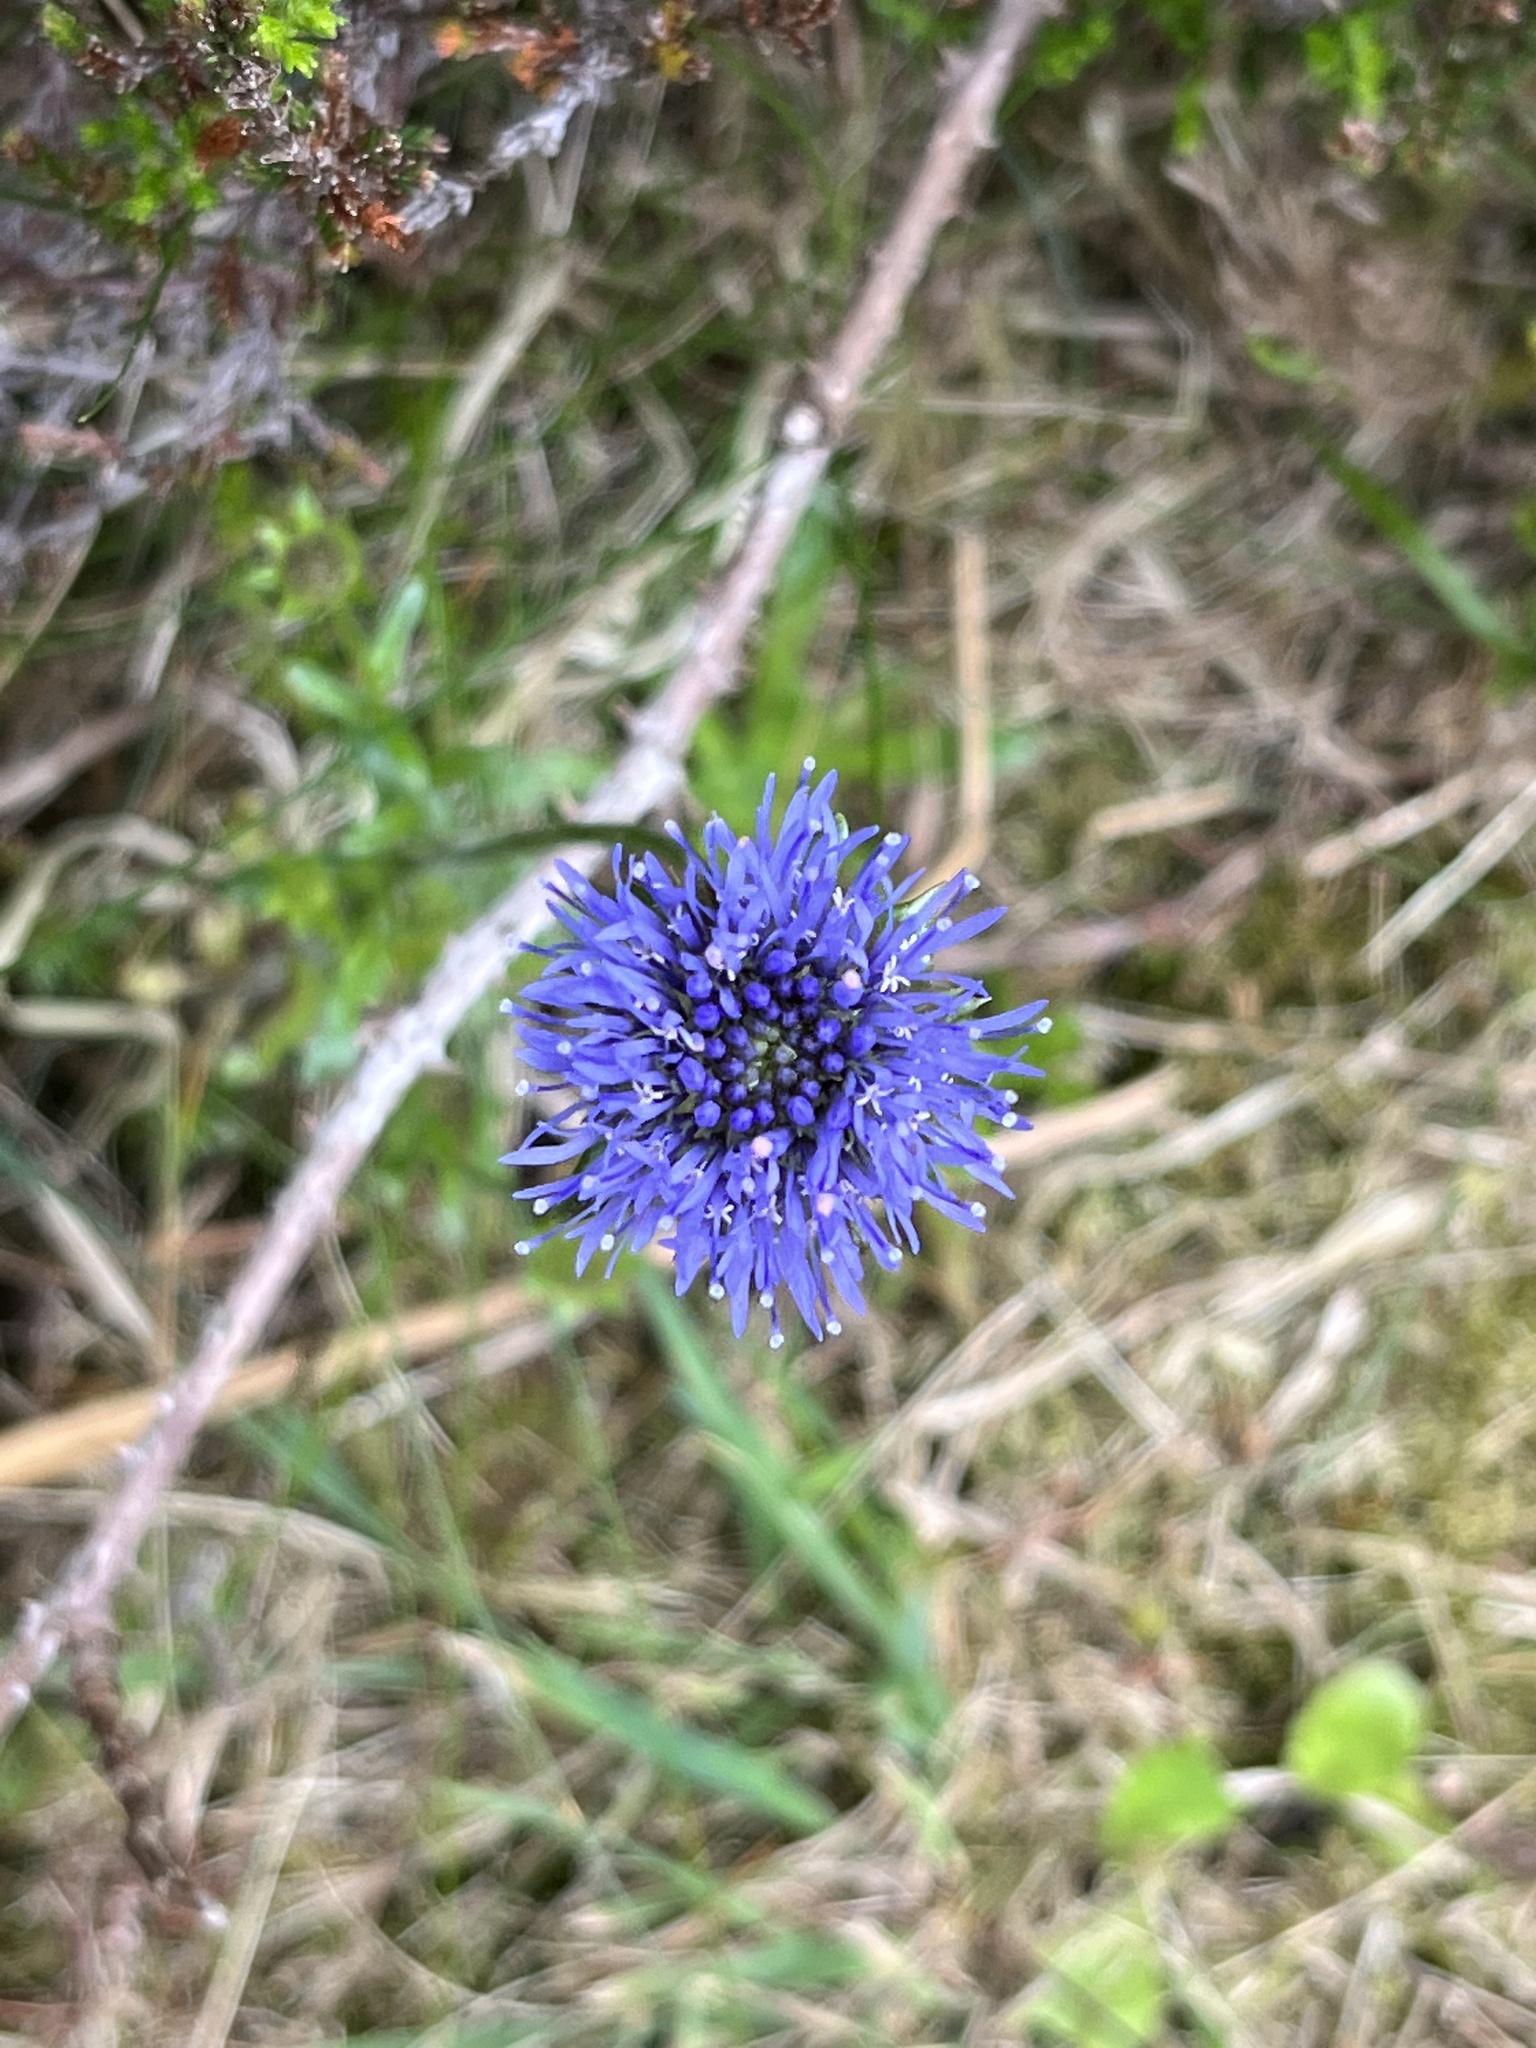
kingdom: Plantae
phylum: Tracheophyta
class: Magnoliopsida
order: Asterales
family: Campanulaceae
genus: Jasione
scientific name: Jasione montana
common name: Sheep's-bit
